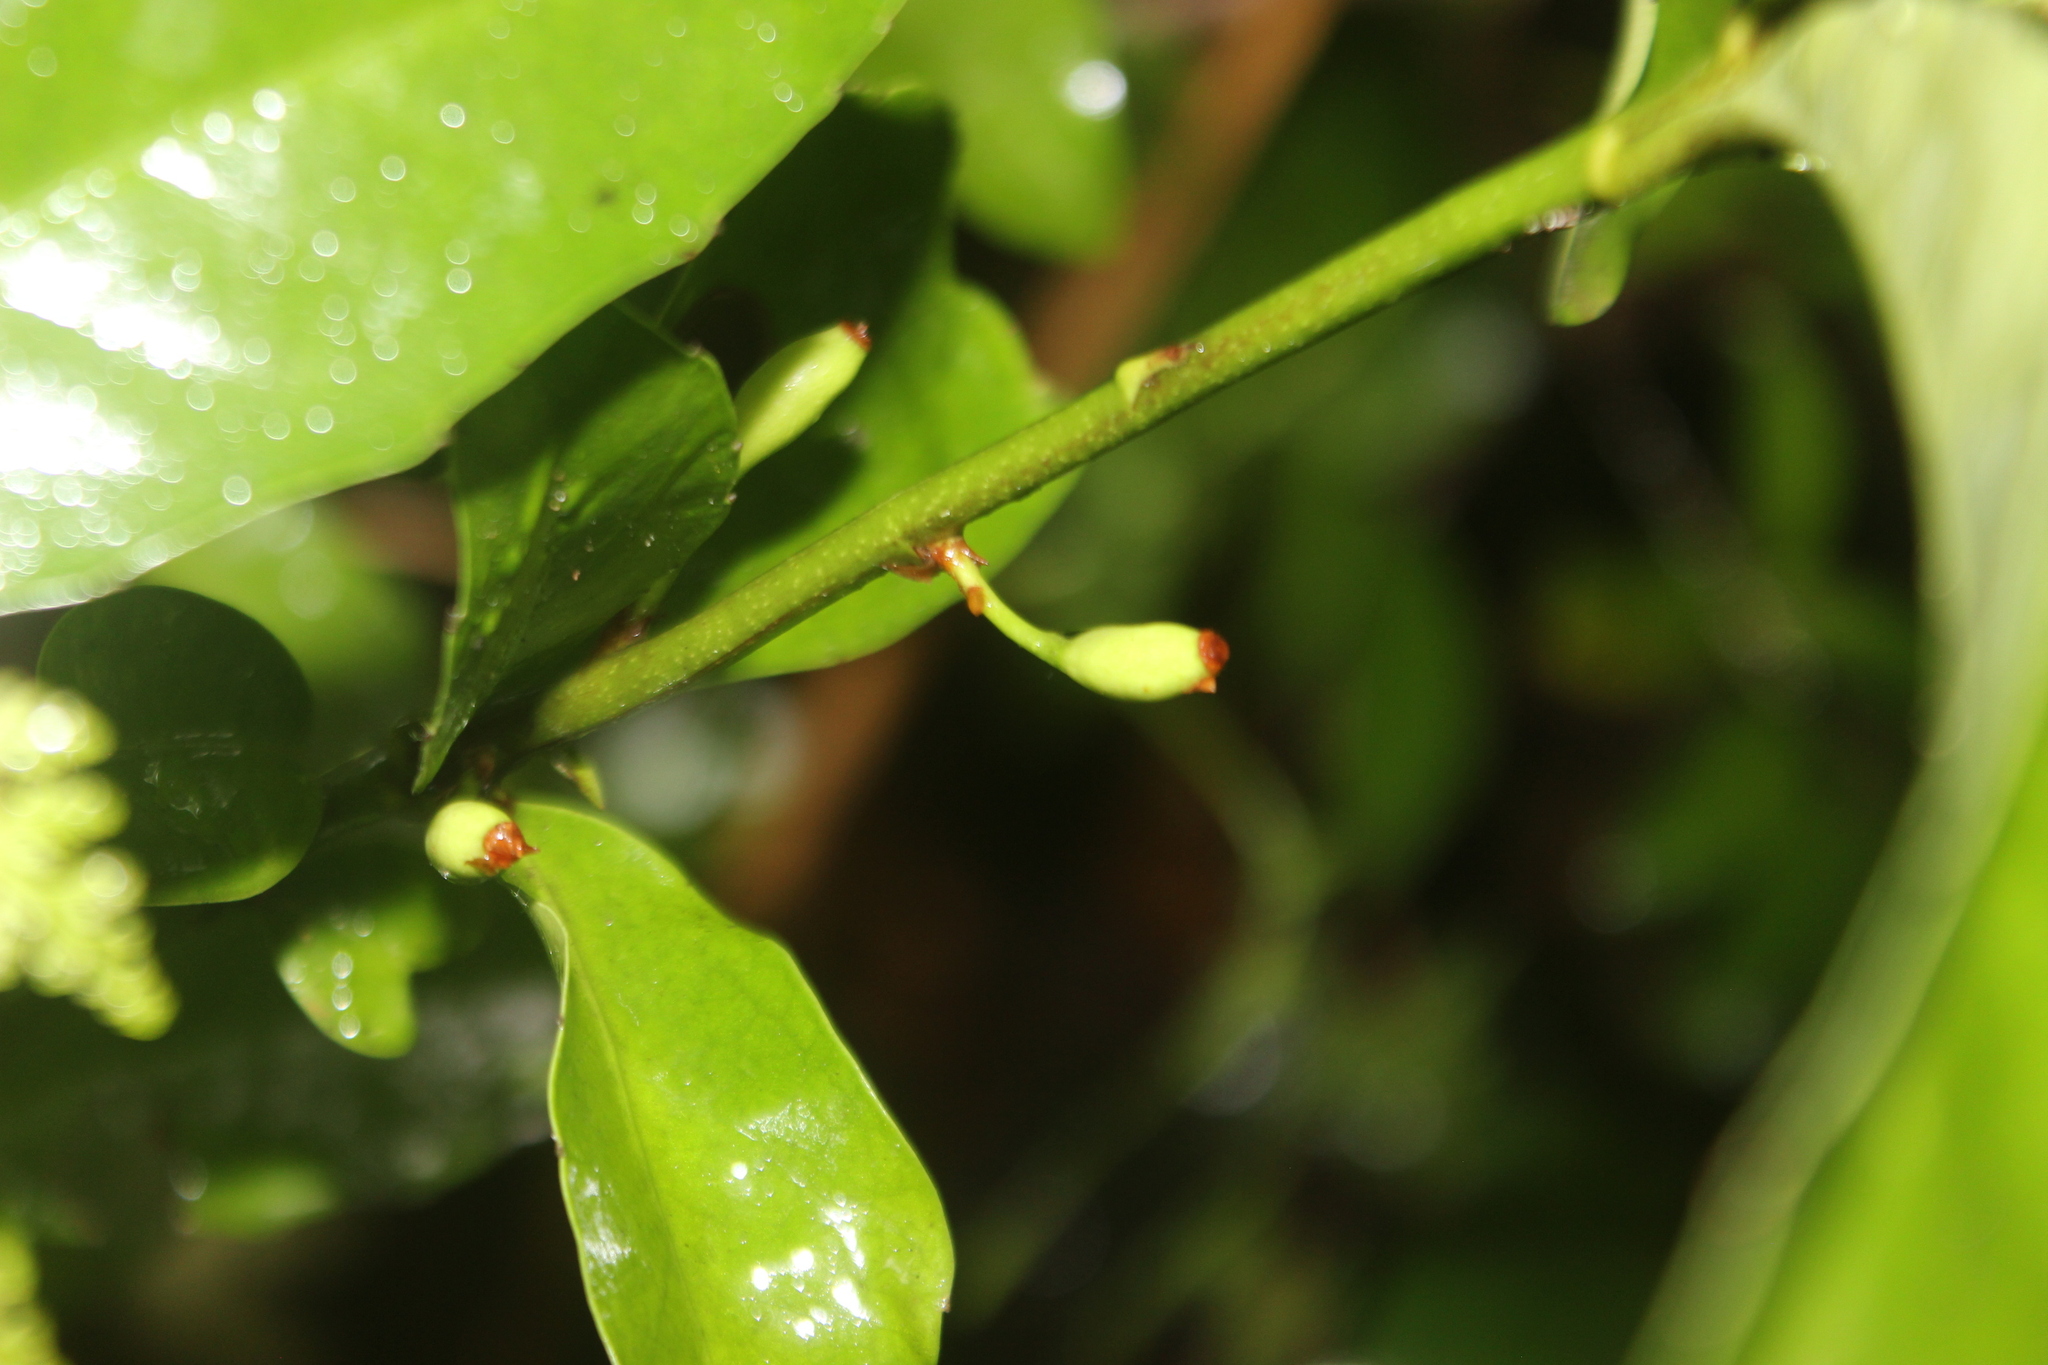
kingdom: Plantae
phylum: Tracheophyta
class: Magnoliopsida
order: Asterales
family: Alseuosmiaceae
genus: Alseuosmia
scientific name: Alseuosmia turneri
